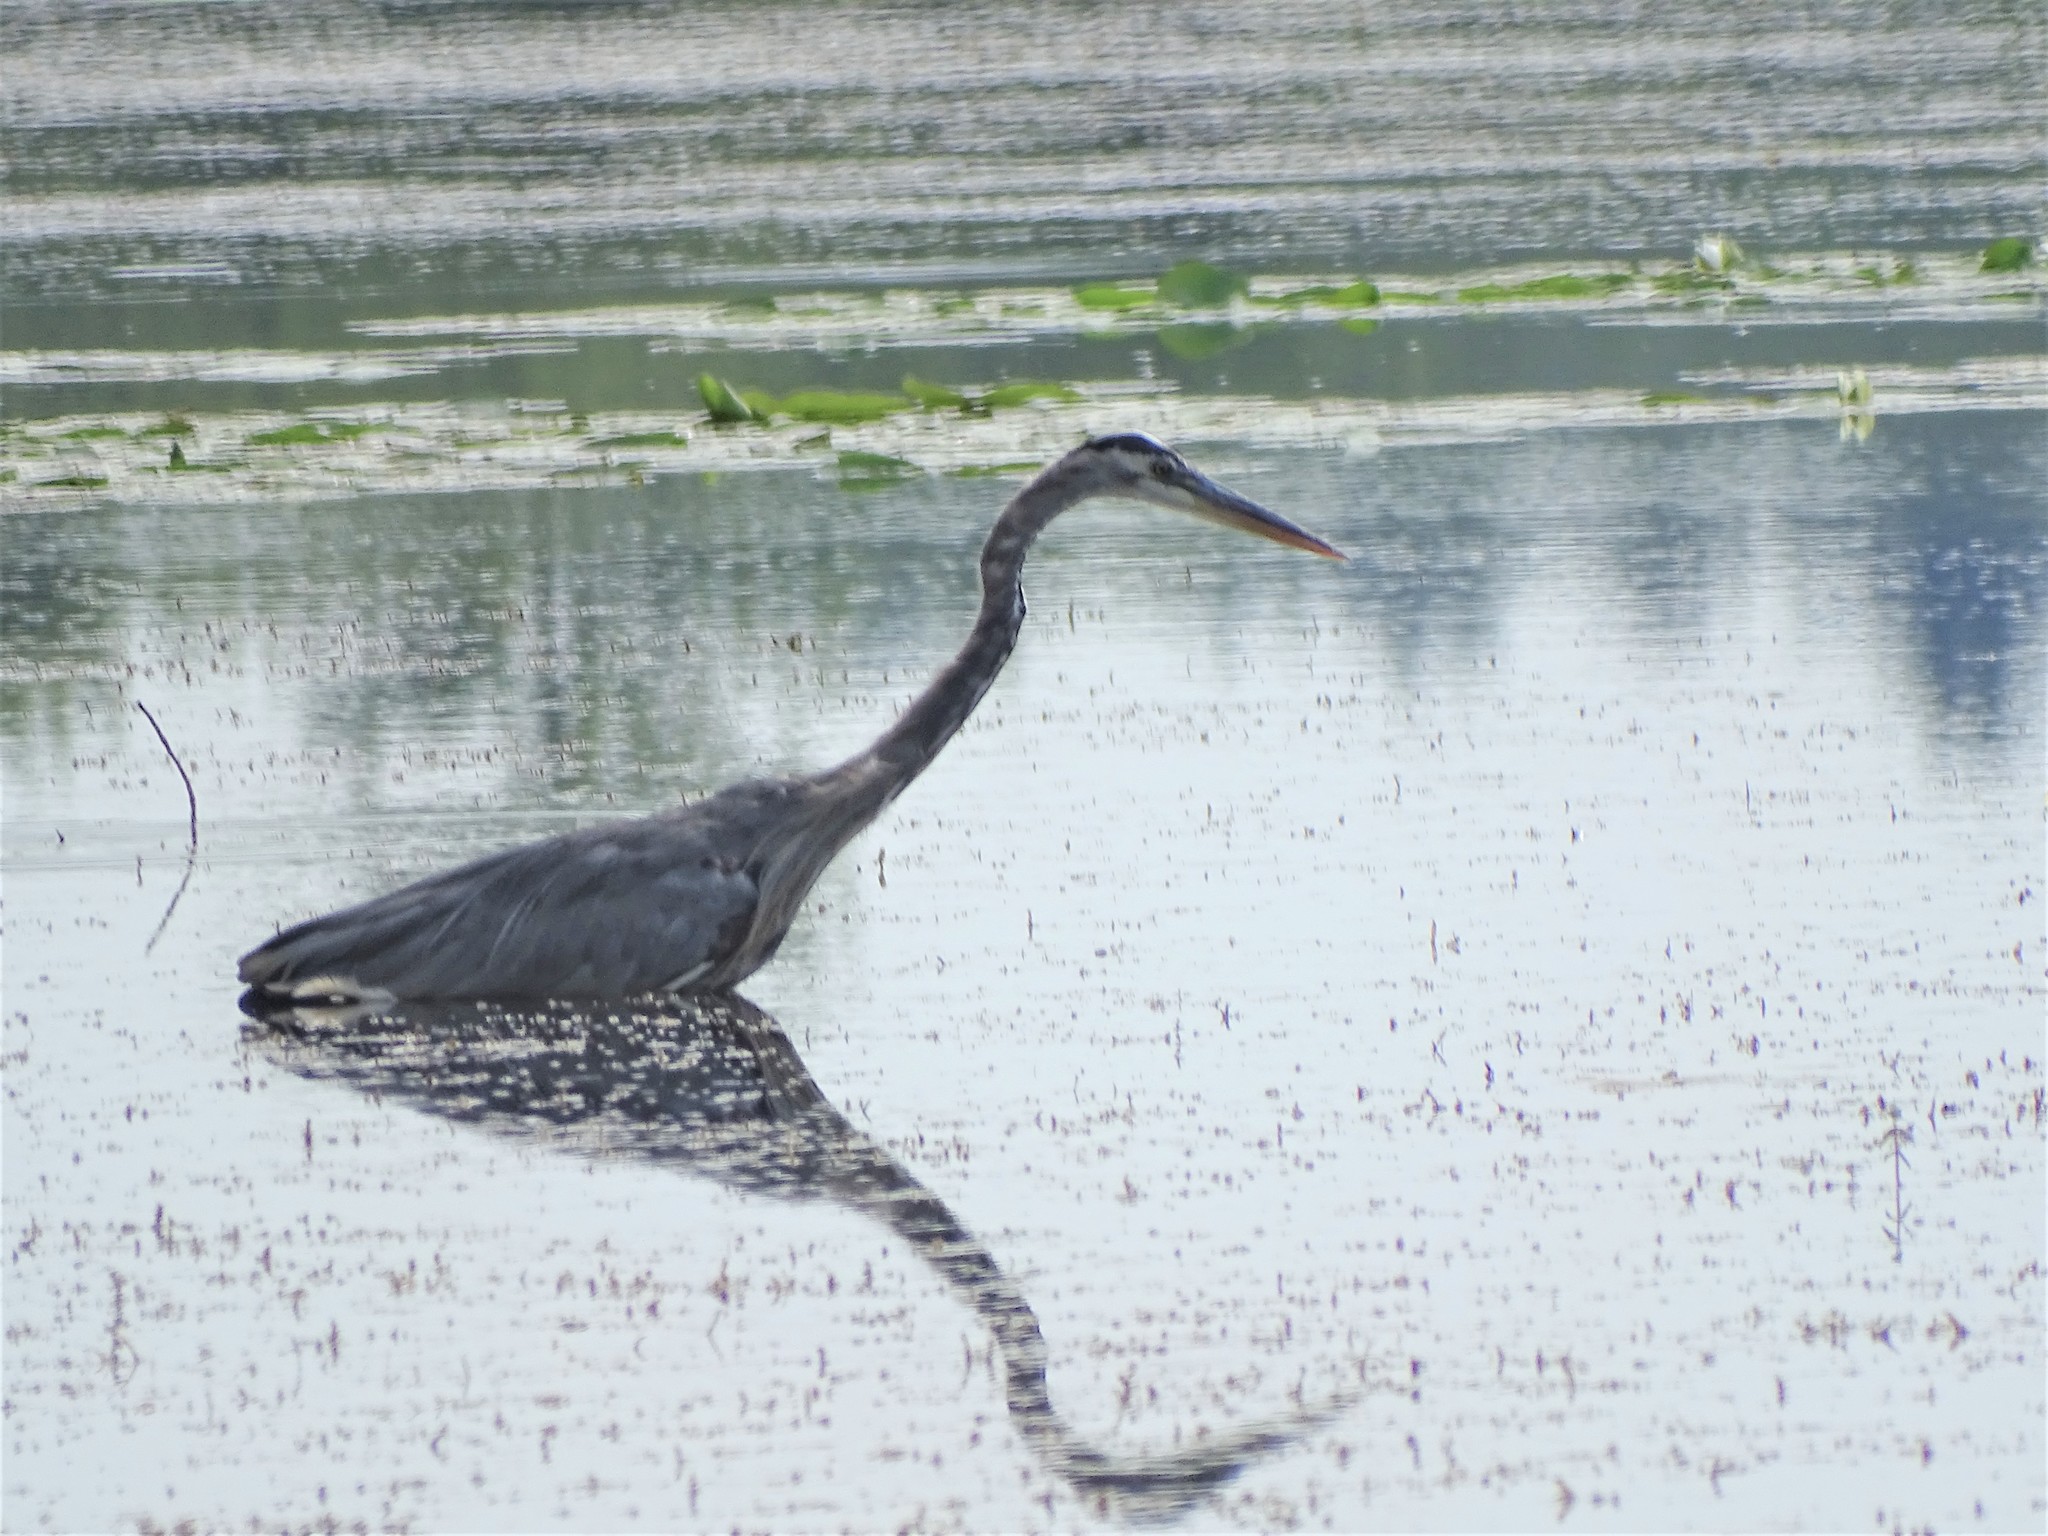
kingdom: Animalia
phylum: Chordata
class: Aves
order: Pelecaniformes
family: Ardeidae
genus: Ardea
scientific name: Ardea herodias
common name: Great blue heron
